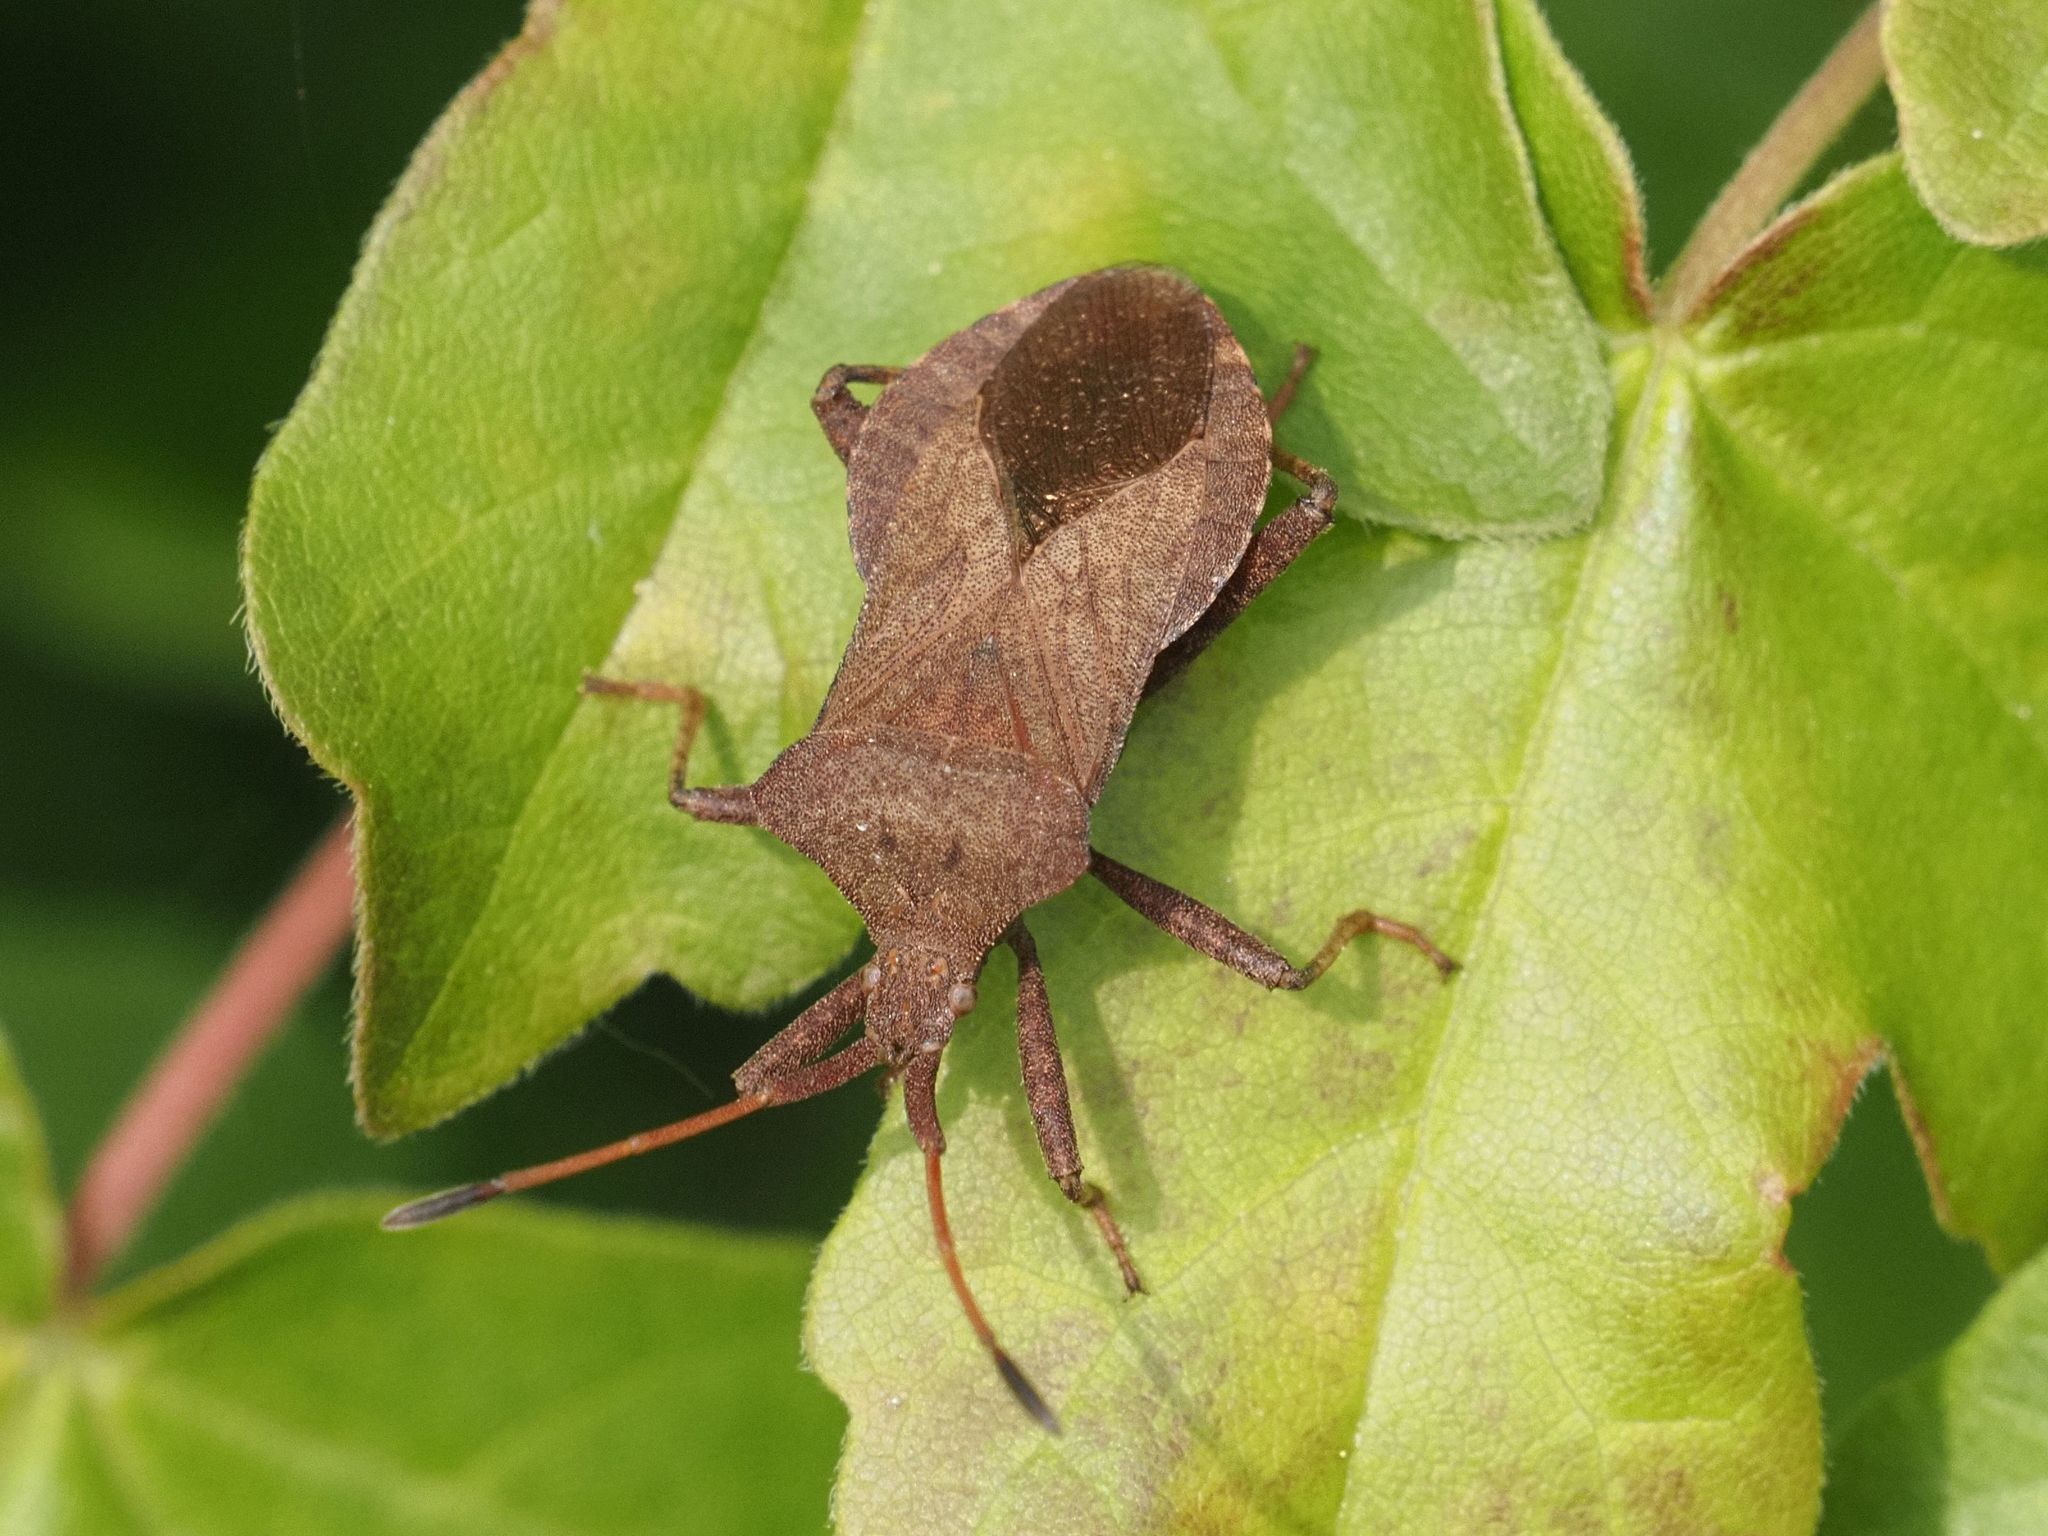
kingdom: Animalia
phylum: Arthropoda
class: Insecta
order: Hemiptera
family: Coreidae
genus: Coreus
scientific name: Coreus marginatus
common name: Dock bug
